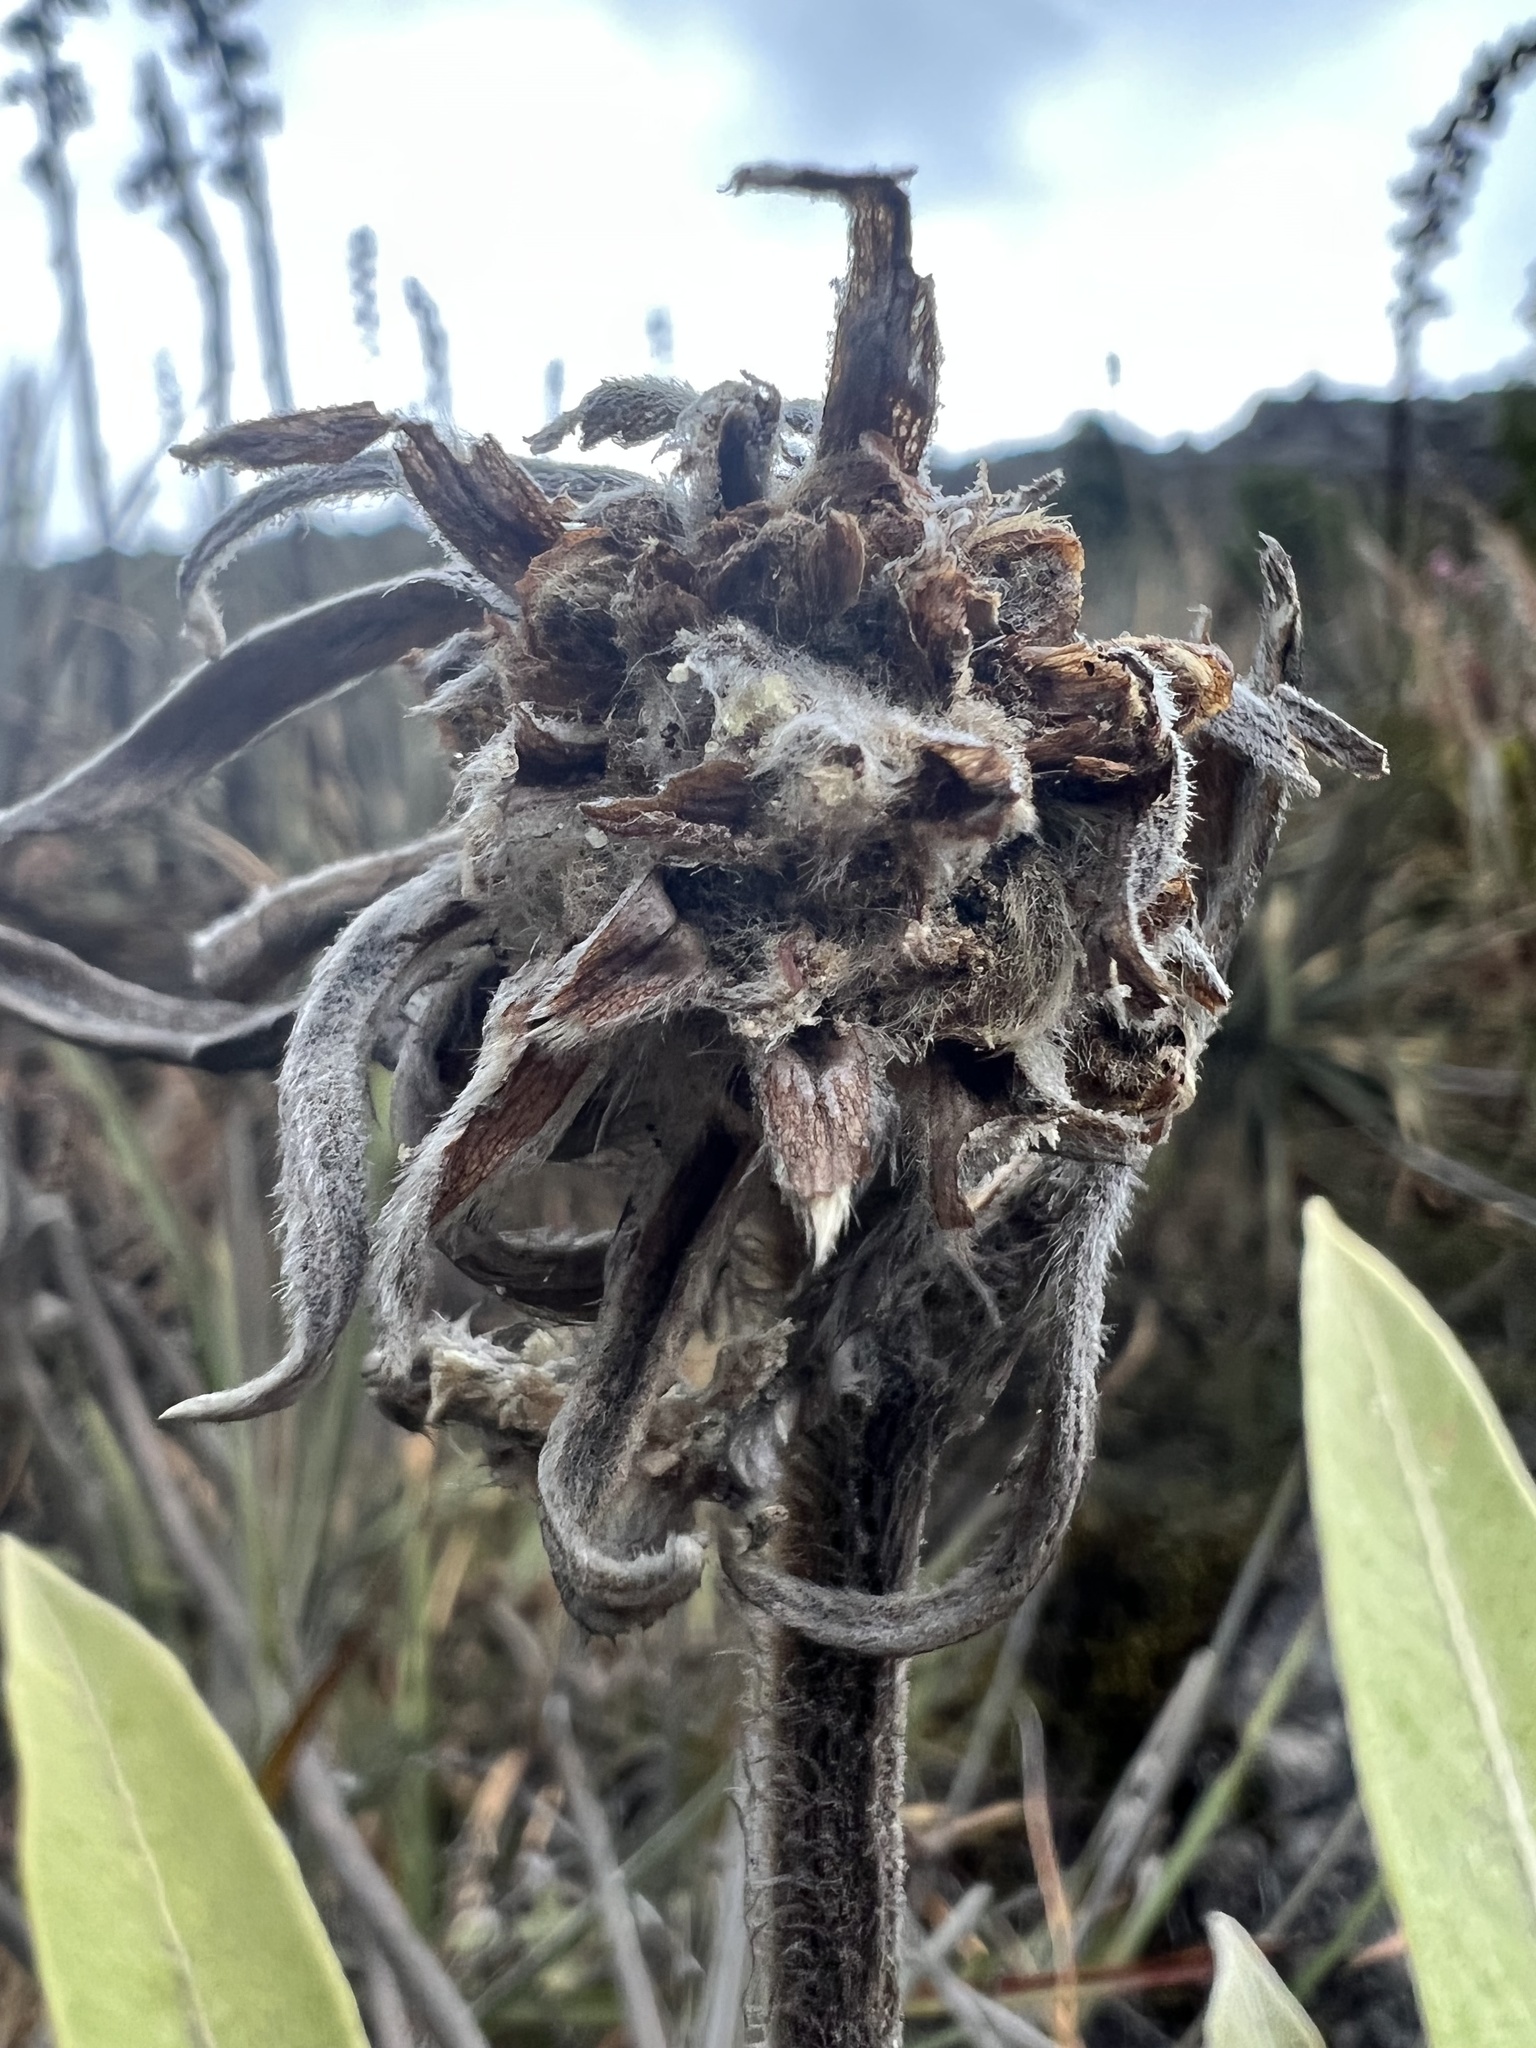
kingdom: Plantae
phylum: Tracheophyta
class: Magnoliopsida
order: Asterales
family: Asteraceae
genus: Espeletia
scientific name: Espeletia corymbosa
